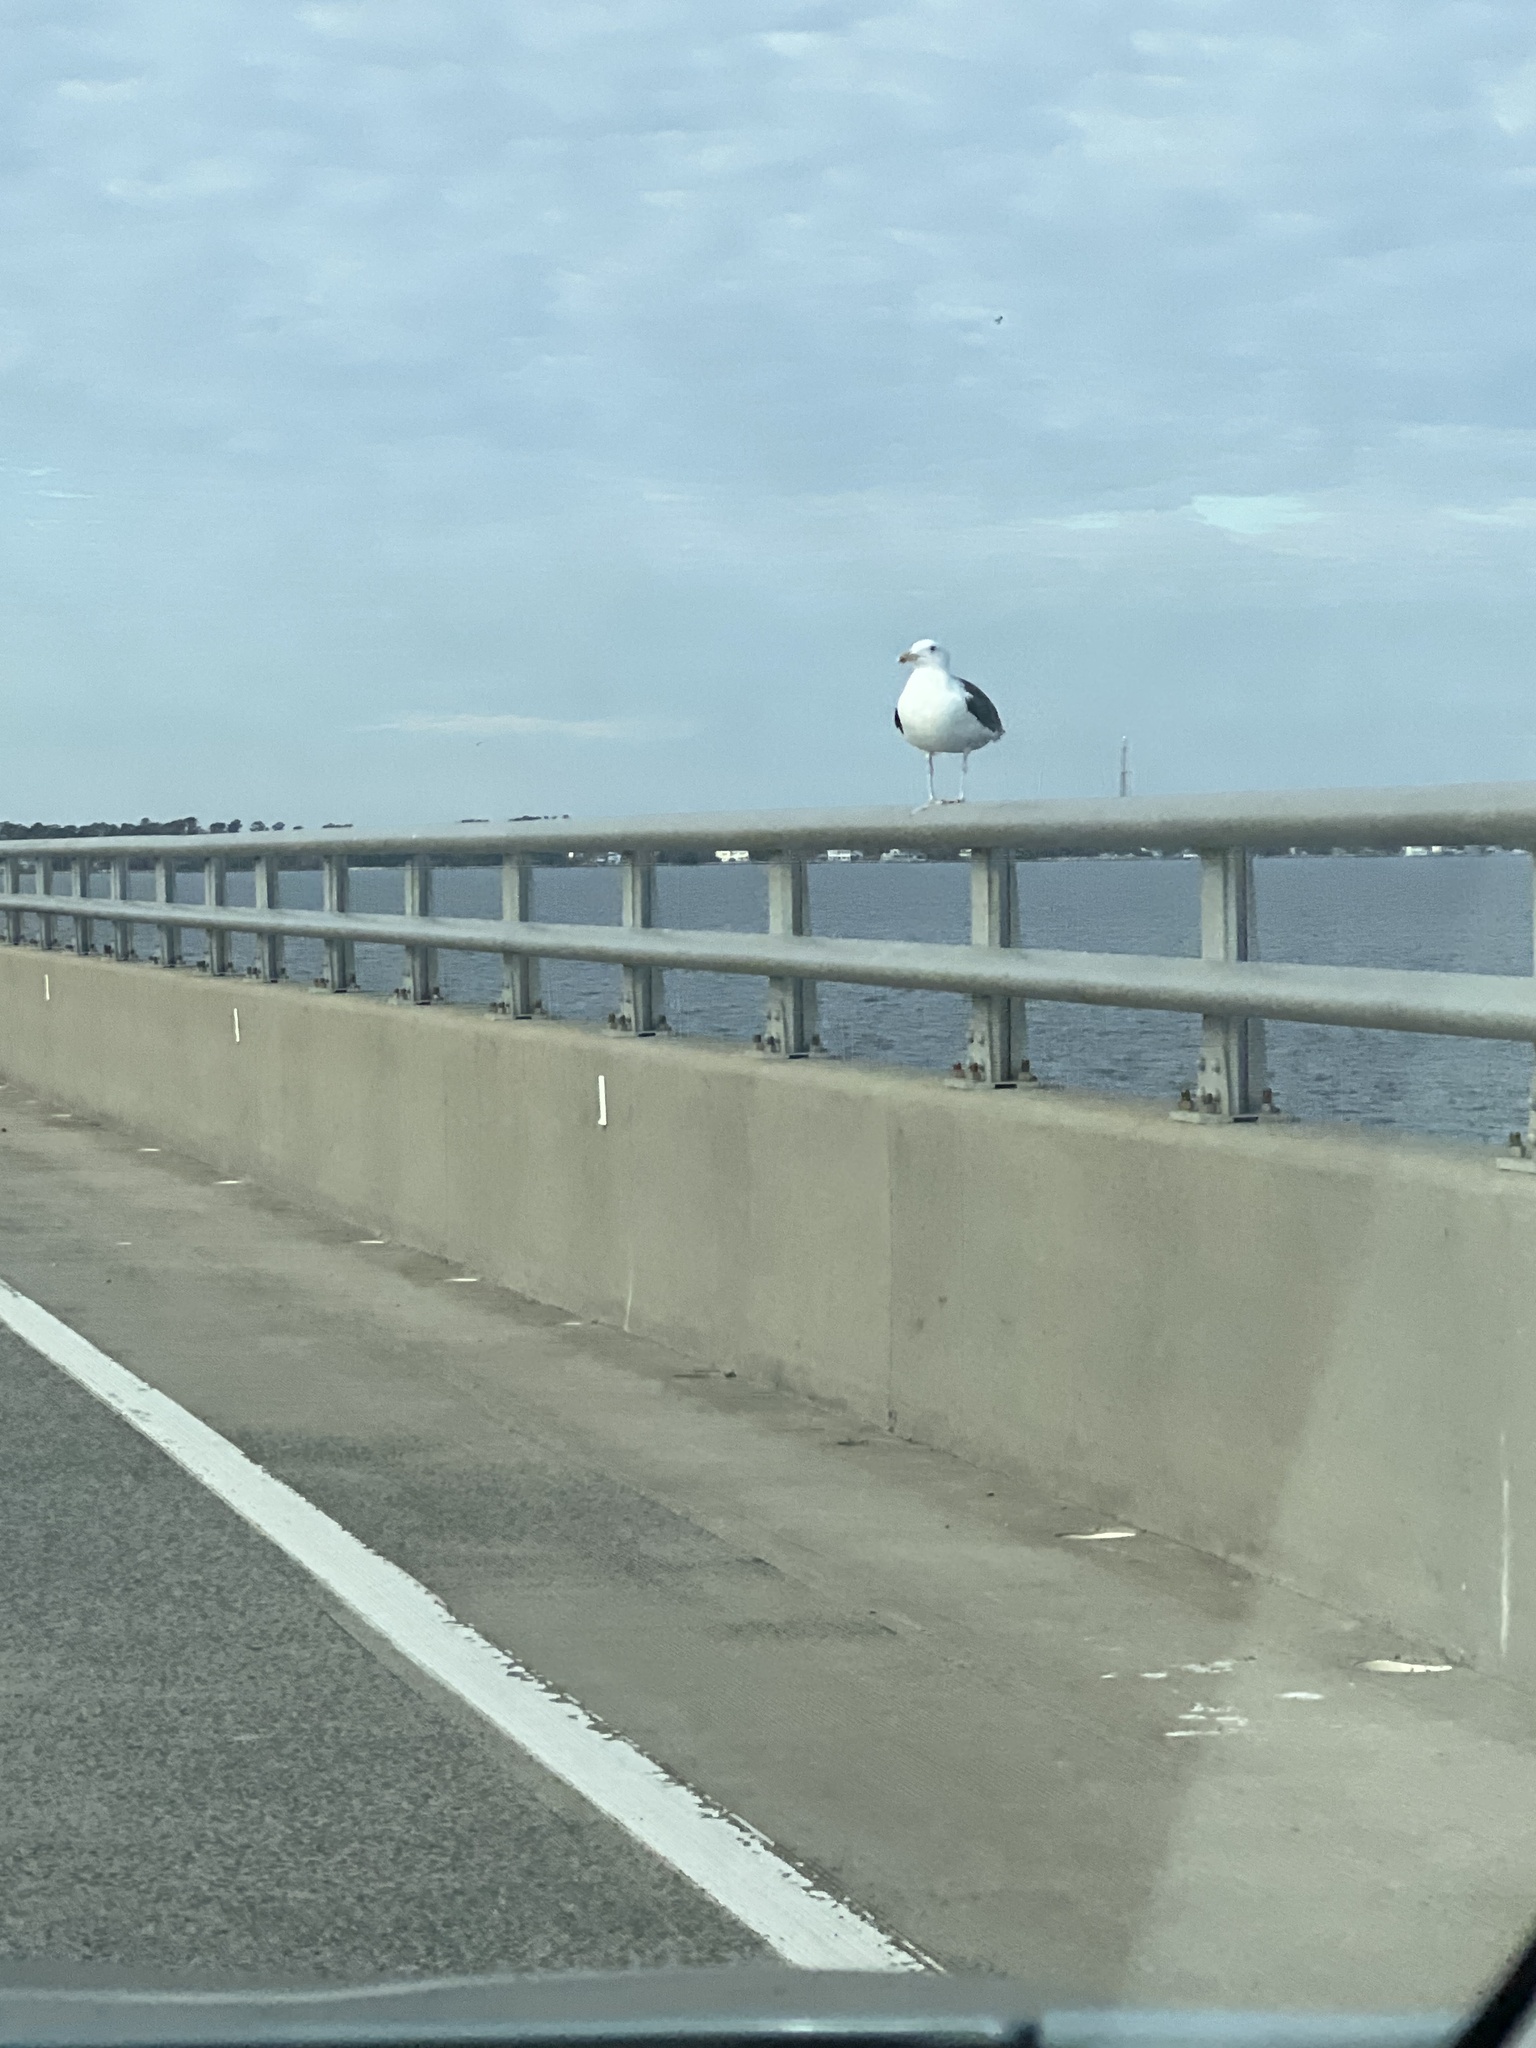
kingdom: Animalia
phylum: Chordata
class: Aves
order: Charadriiformes
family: Laridae
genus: Larus
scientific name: Larus marinus
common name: Great black-backed gull
